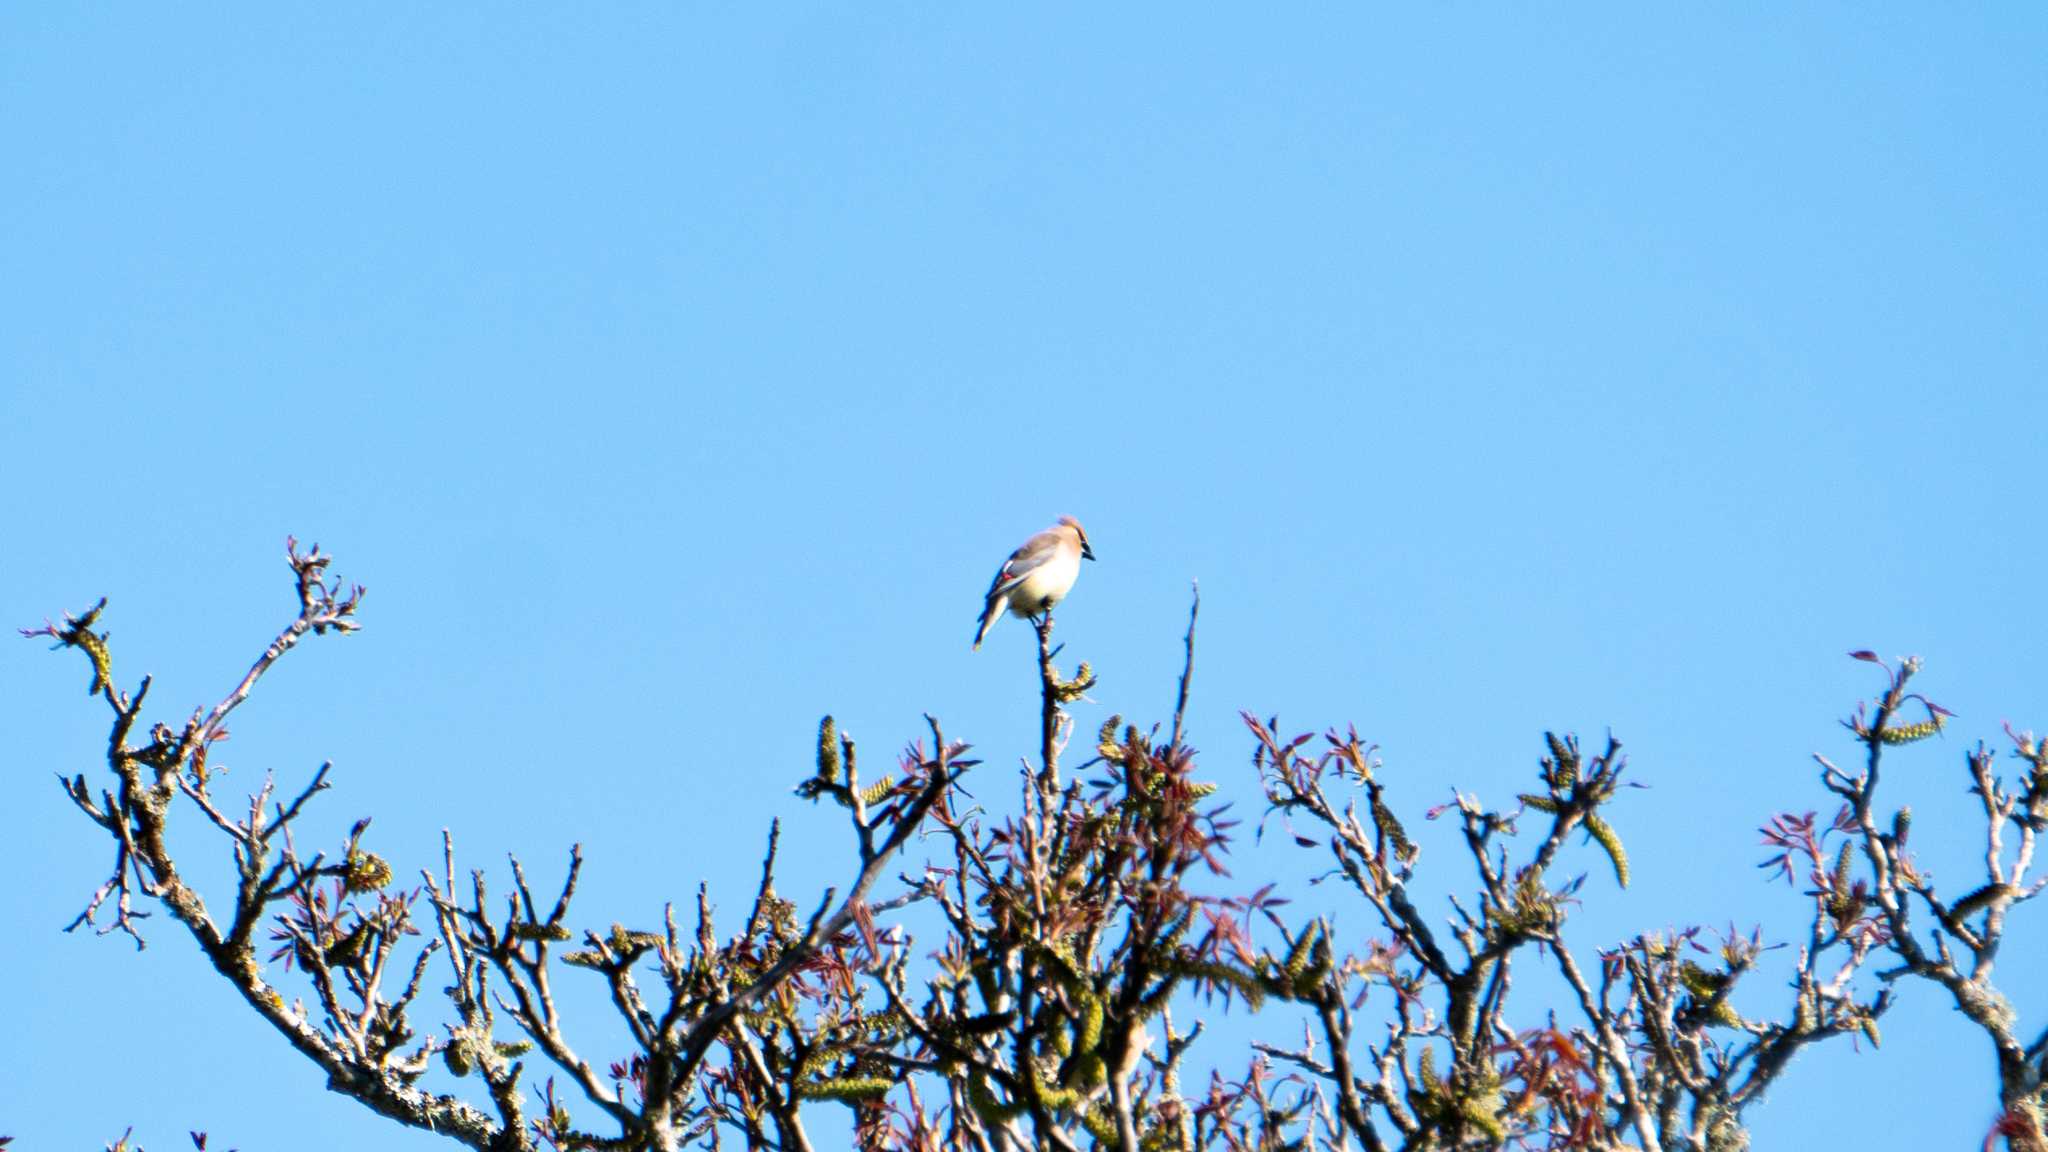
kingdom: Animalia
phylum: Chordata
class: Aves
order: Passeriformes
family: Bombycillidae
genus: Bombycilla
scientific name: Bombycilla cedrorum
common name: Cedar waxwing
